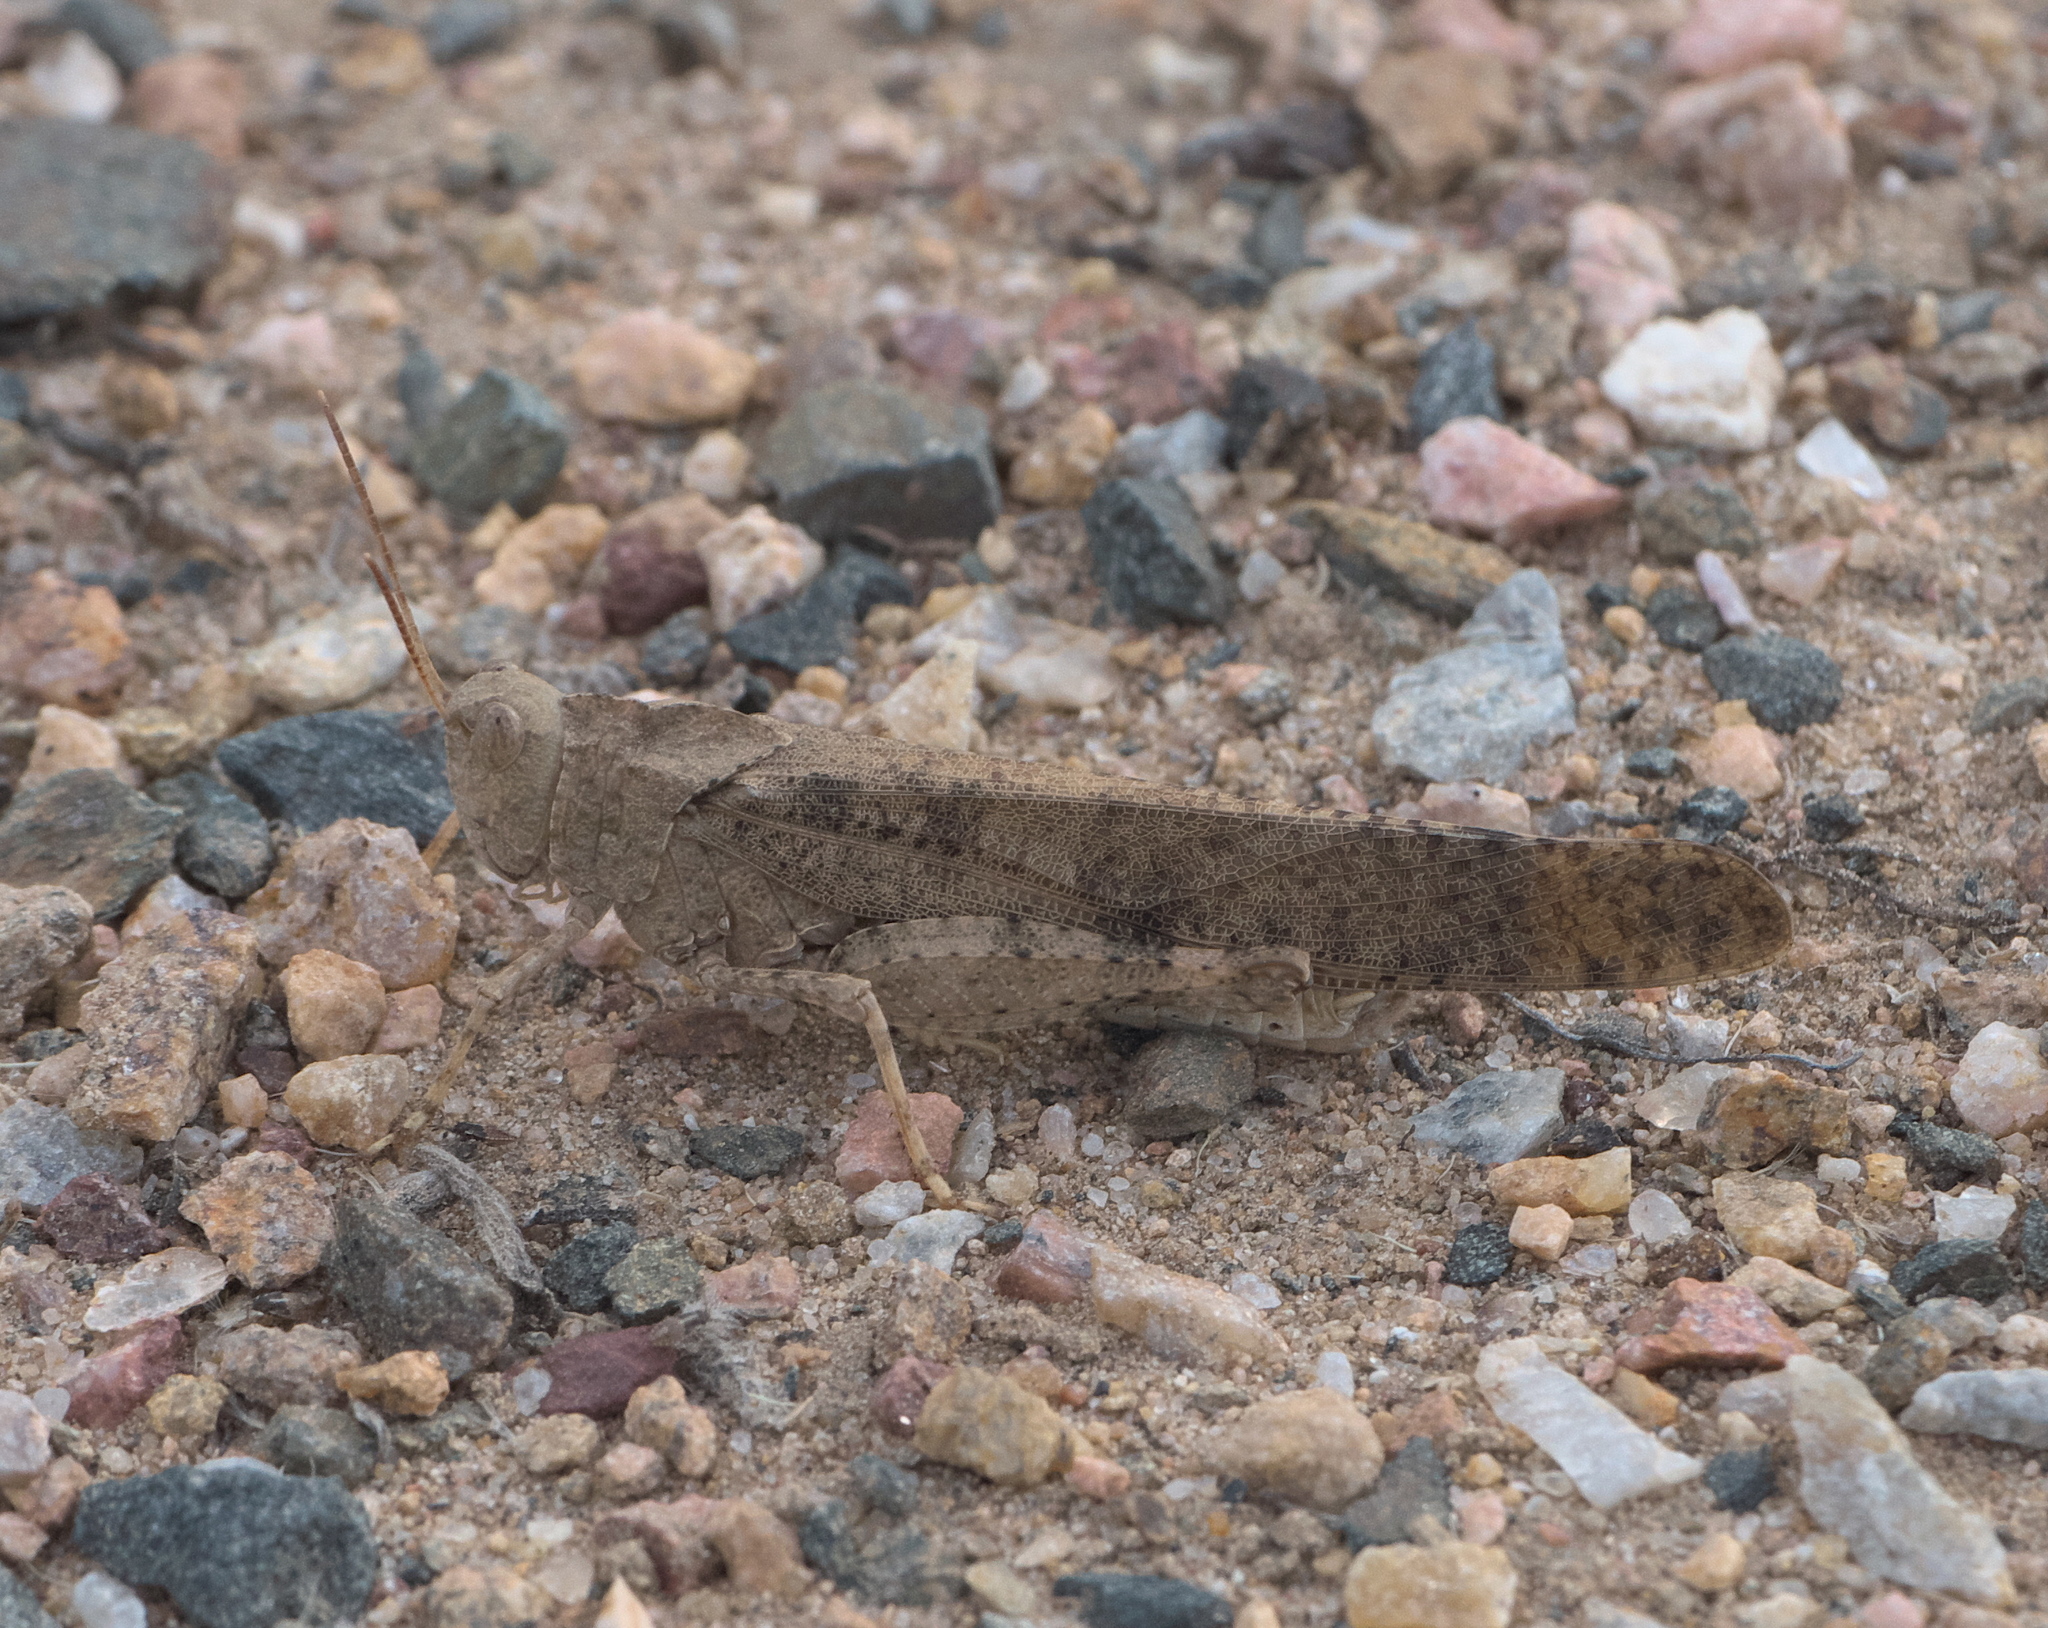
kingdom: Animalia
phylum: Arthropoda
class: Insecta
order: Orthoptera
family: Acrididae
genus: Dissosteira
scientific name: Dissosteira carolina
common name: Carolina grasshopper
